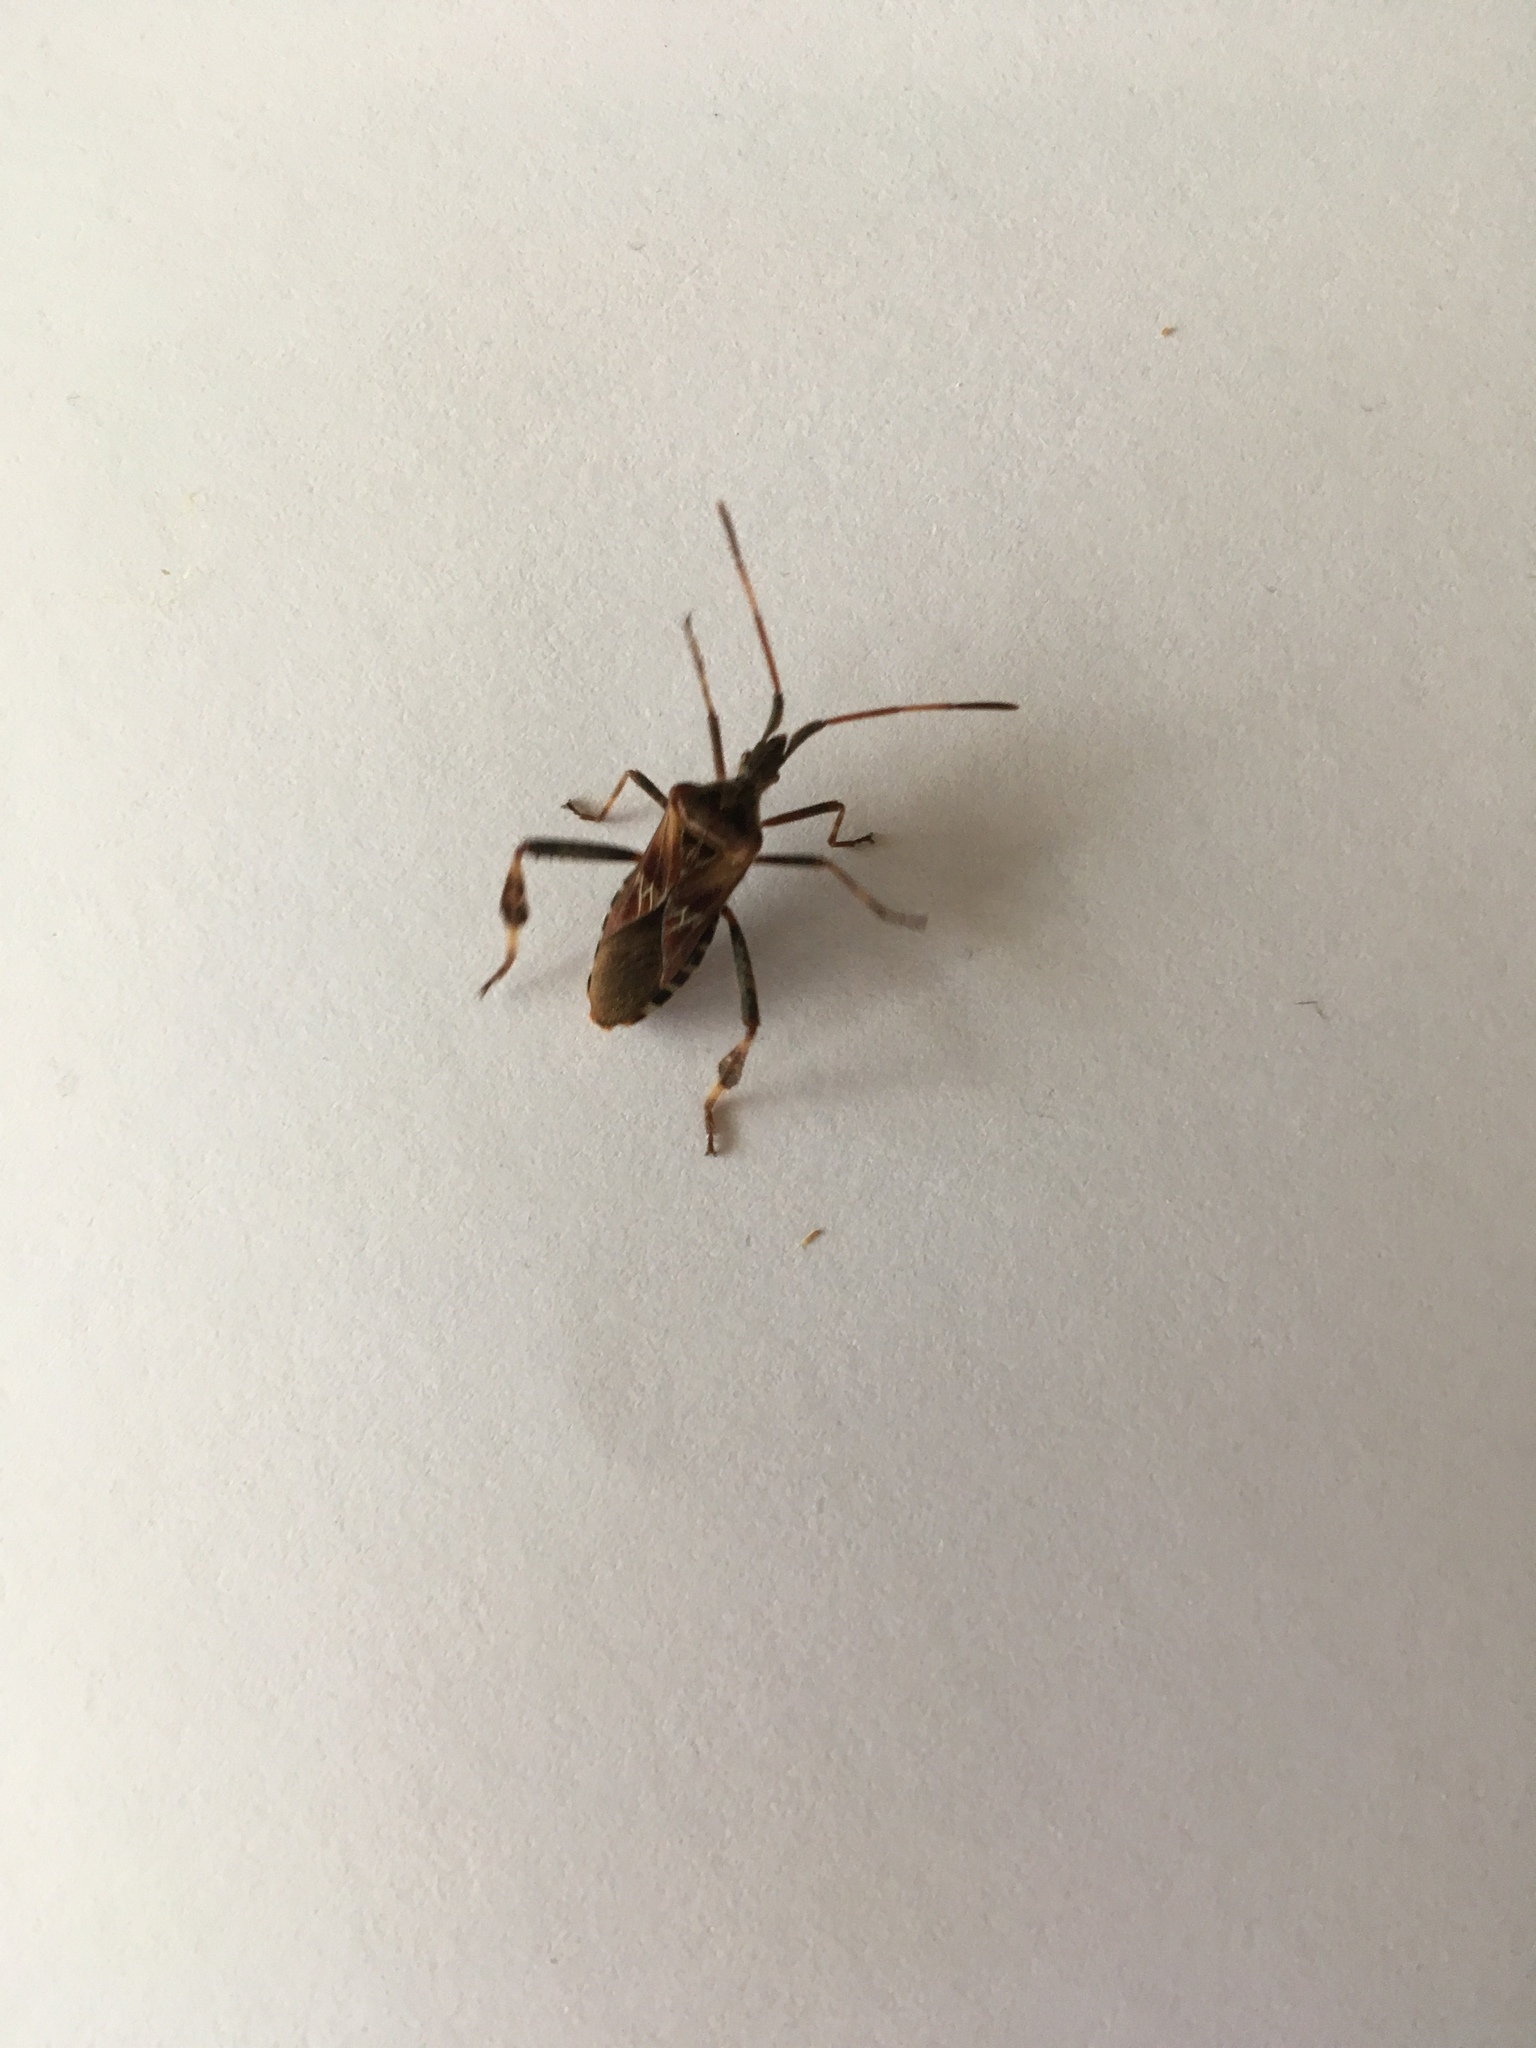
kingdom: Animalia
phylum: Arthropoda
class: Insecta
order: Hemiptera
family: Coreidae
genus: Leptoglossus
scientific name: Leptoglossus occidentalis
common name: Western conifer-seed bug
